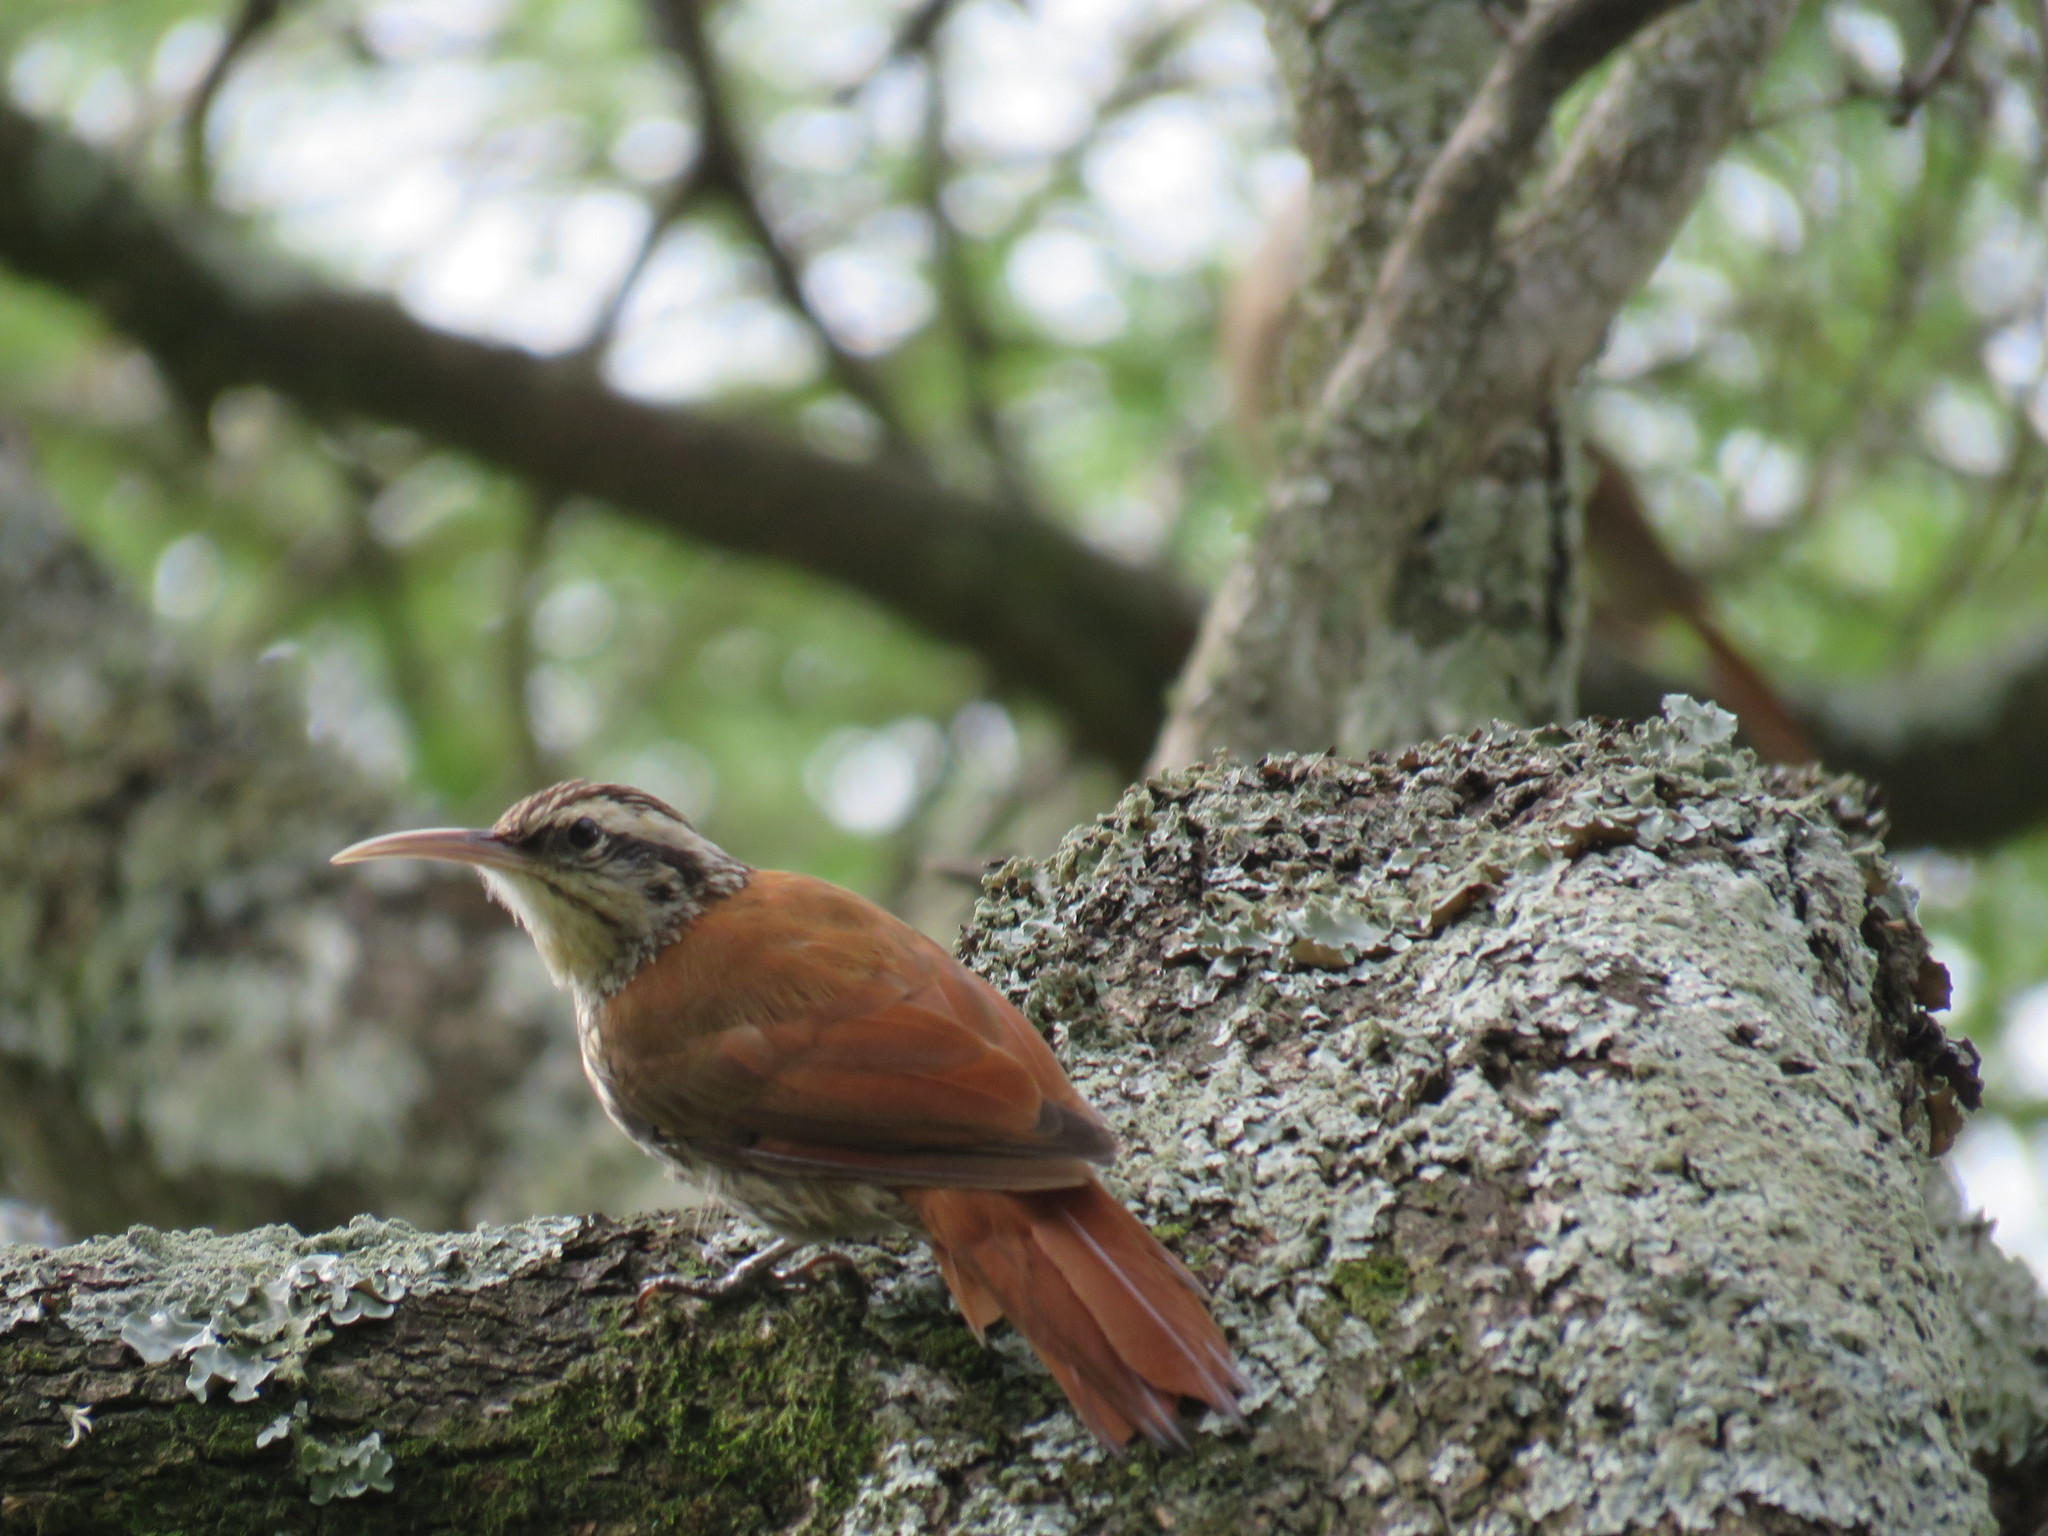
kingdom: Animalia
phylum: Chordata
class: Aves
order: Passeriformes
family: Furnariidae
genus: Lepidocolaptes
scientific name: Lepidocolaptes angustirostris
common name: Narrow-billed woodcreeper
